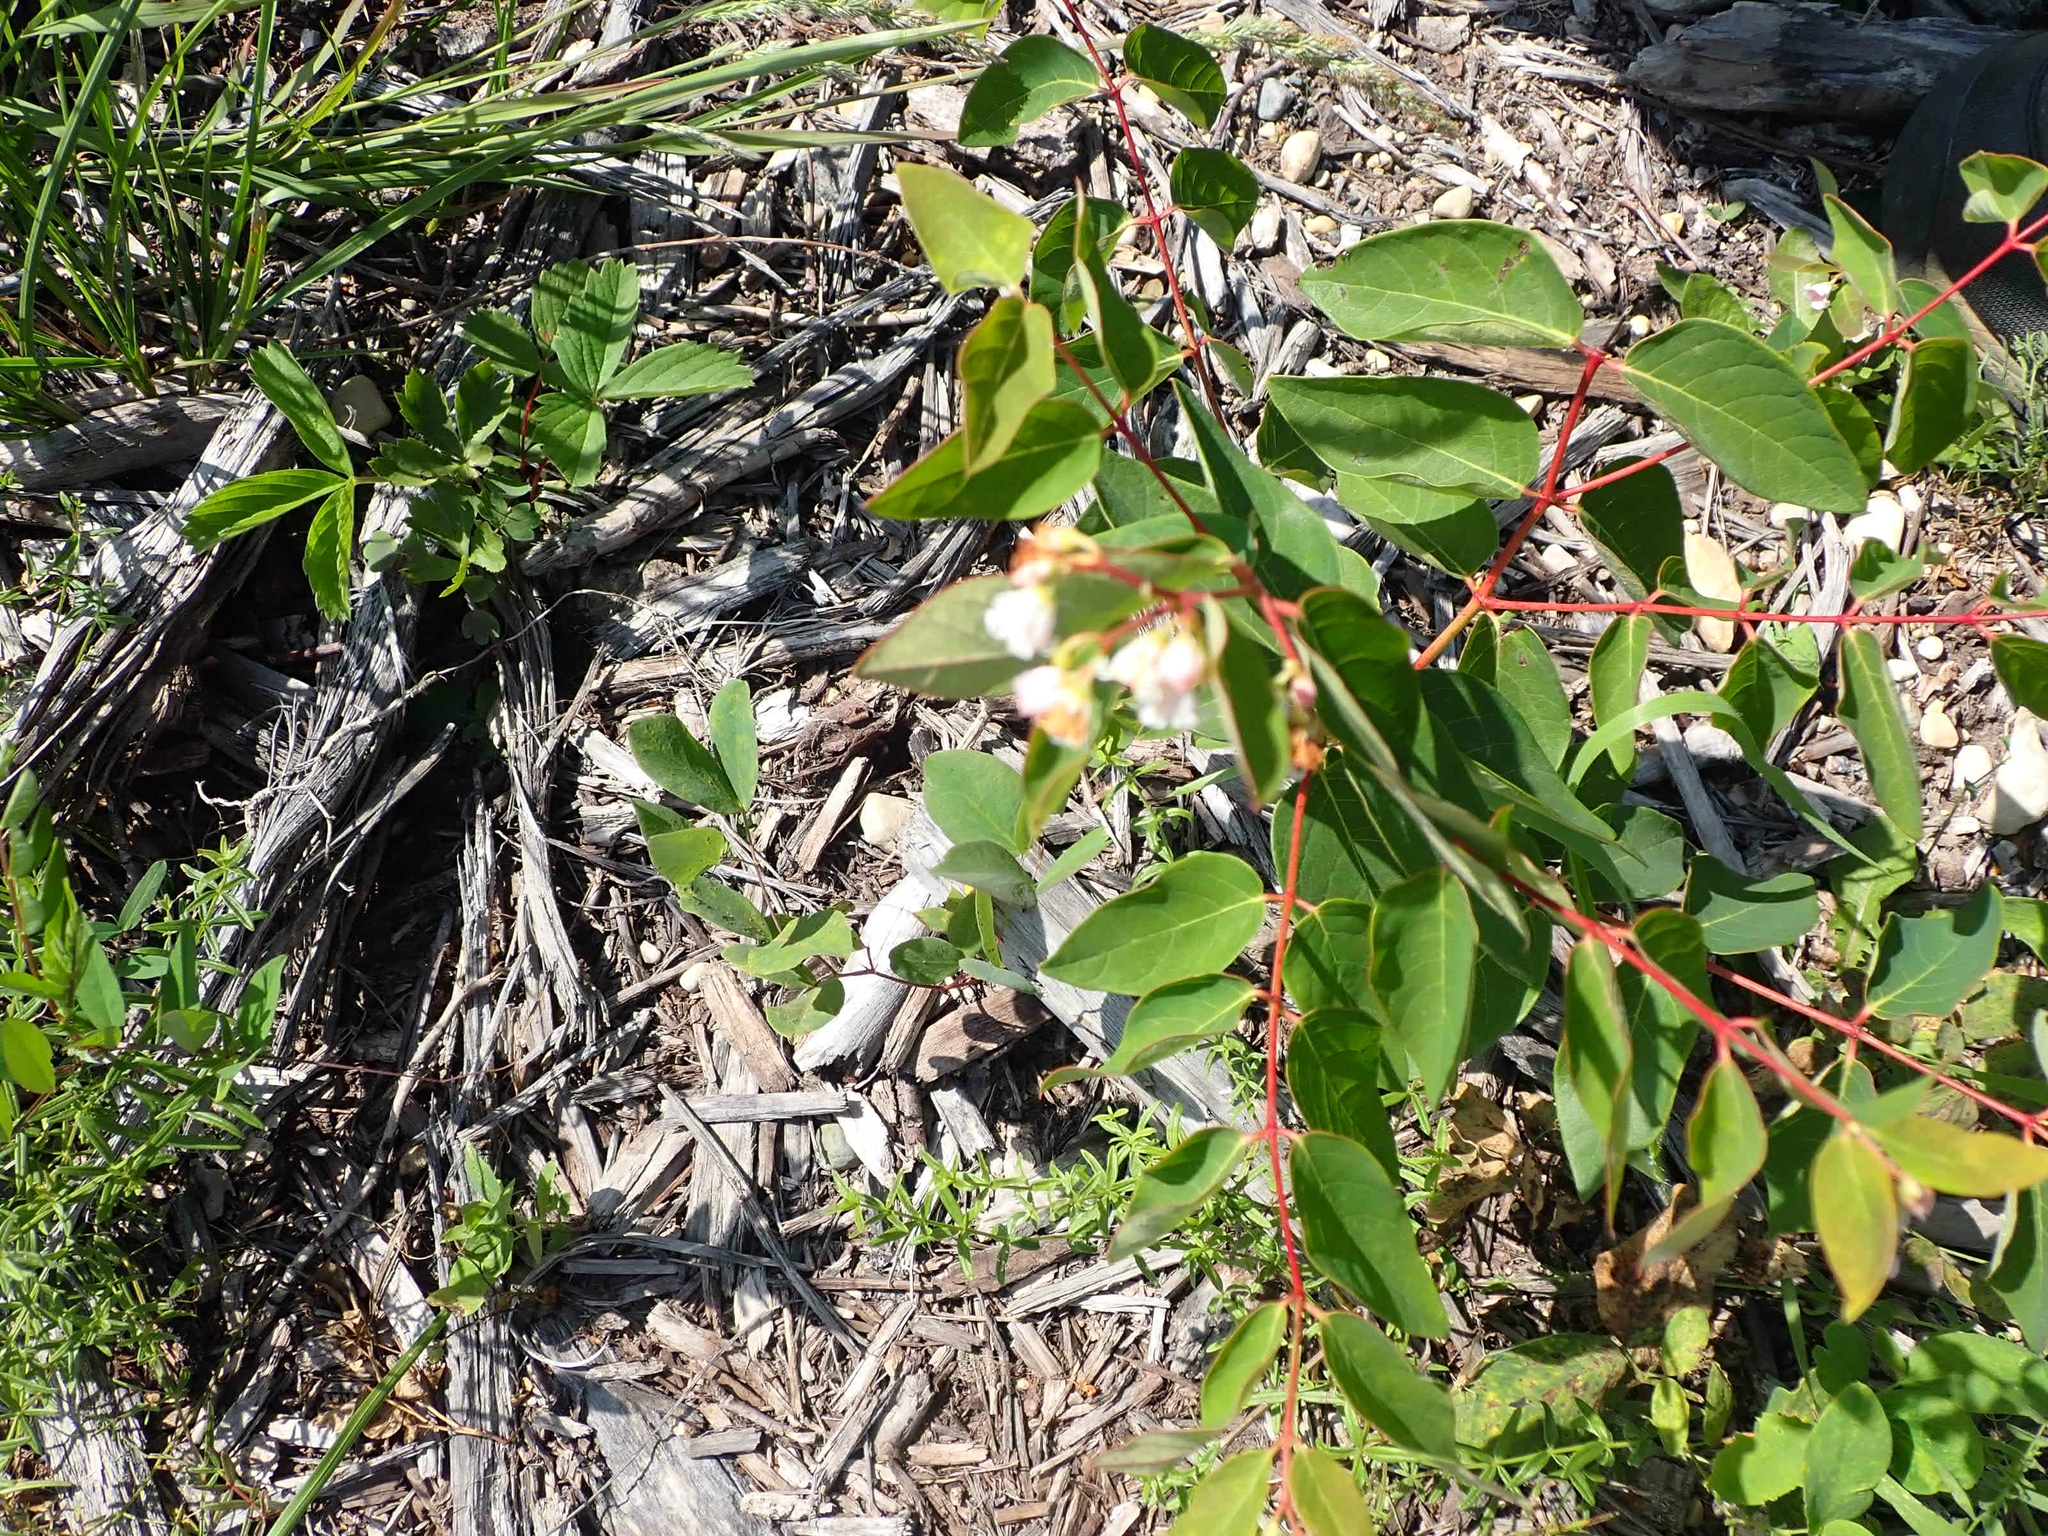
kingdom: Plantae
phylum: Tracheophyta
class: Magnoliopsida
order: Gentianales
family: Apocynaceae
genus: Apocynum
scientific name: Apocynum androsaemifolium
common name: Spreading dogbane
